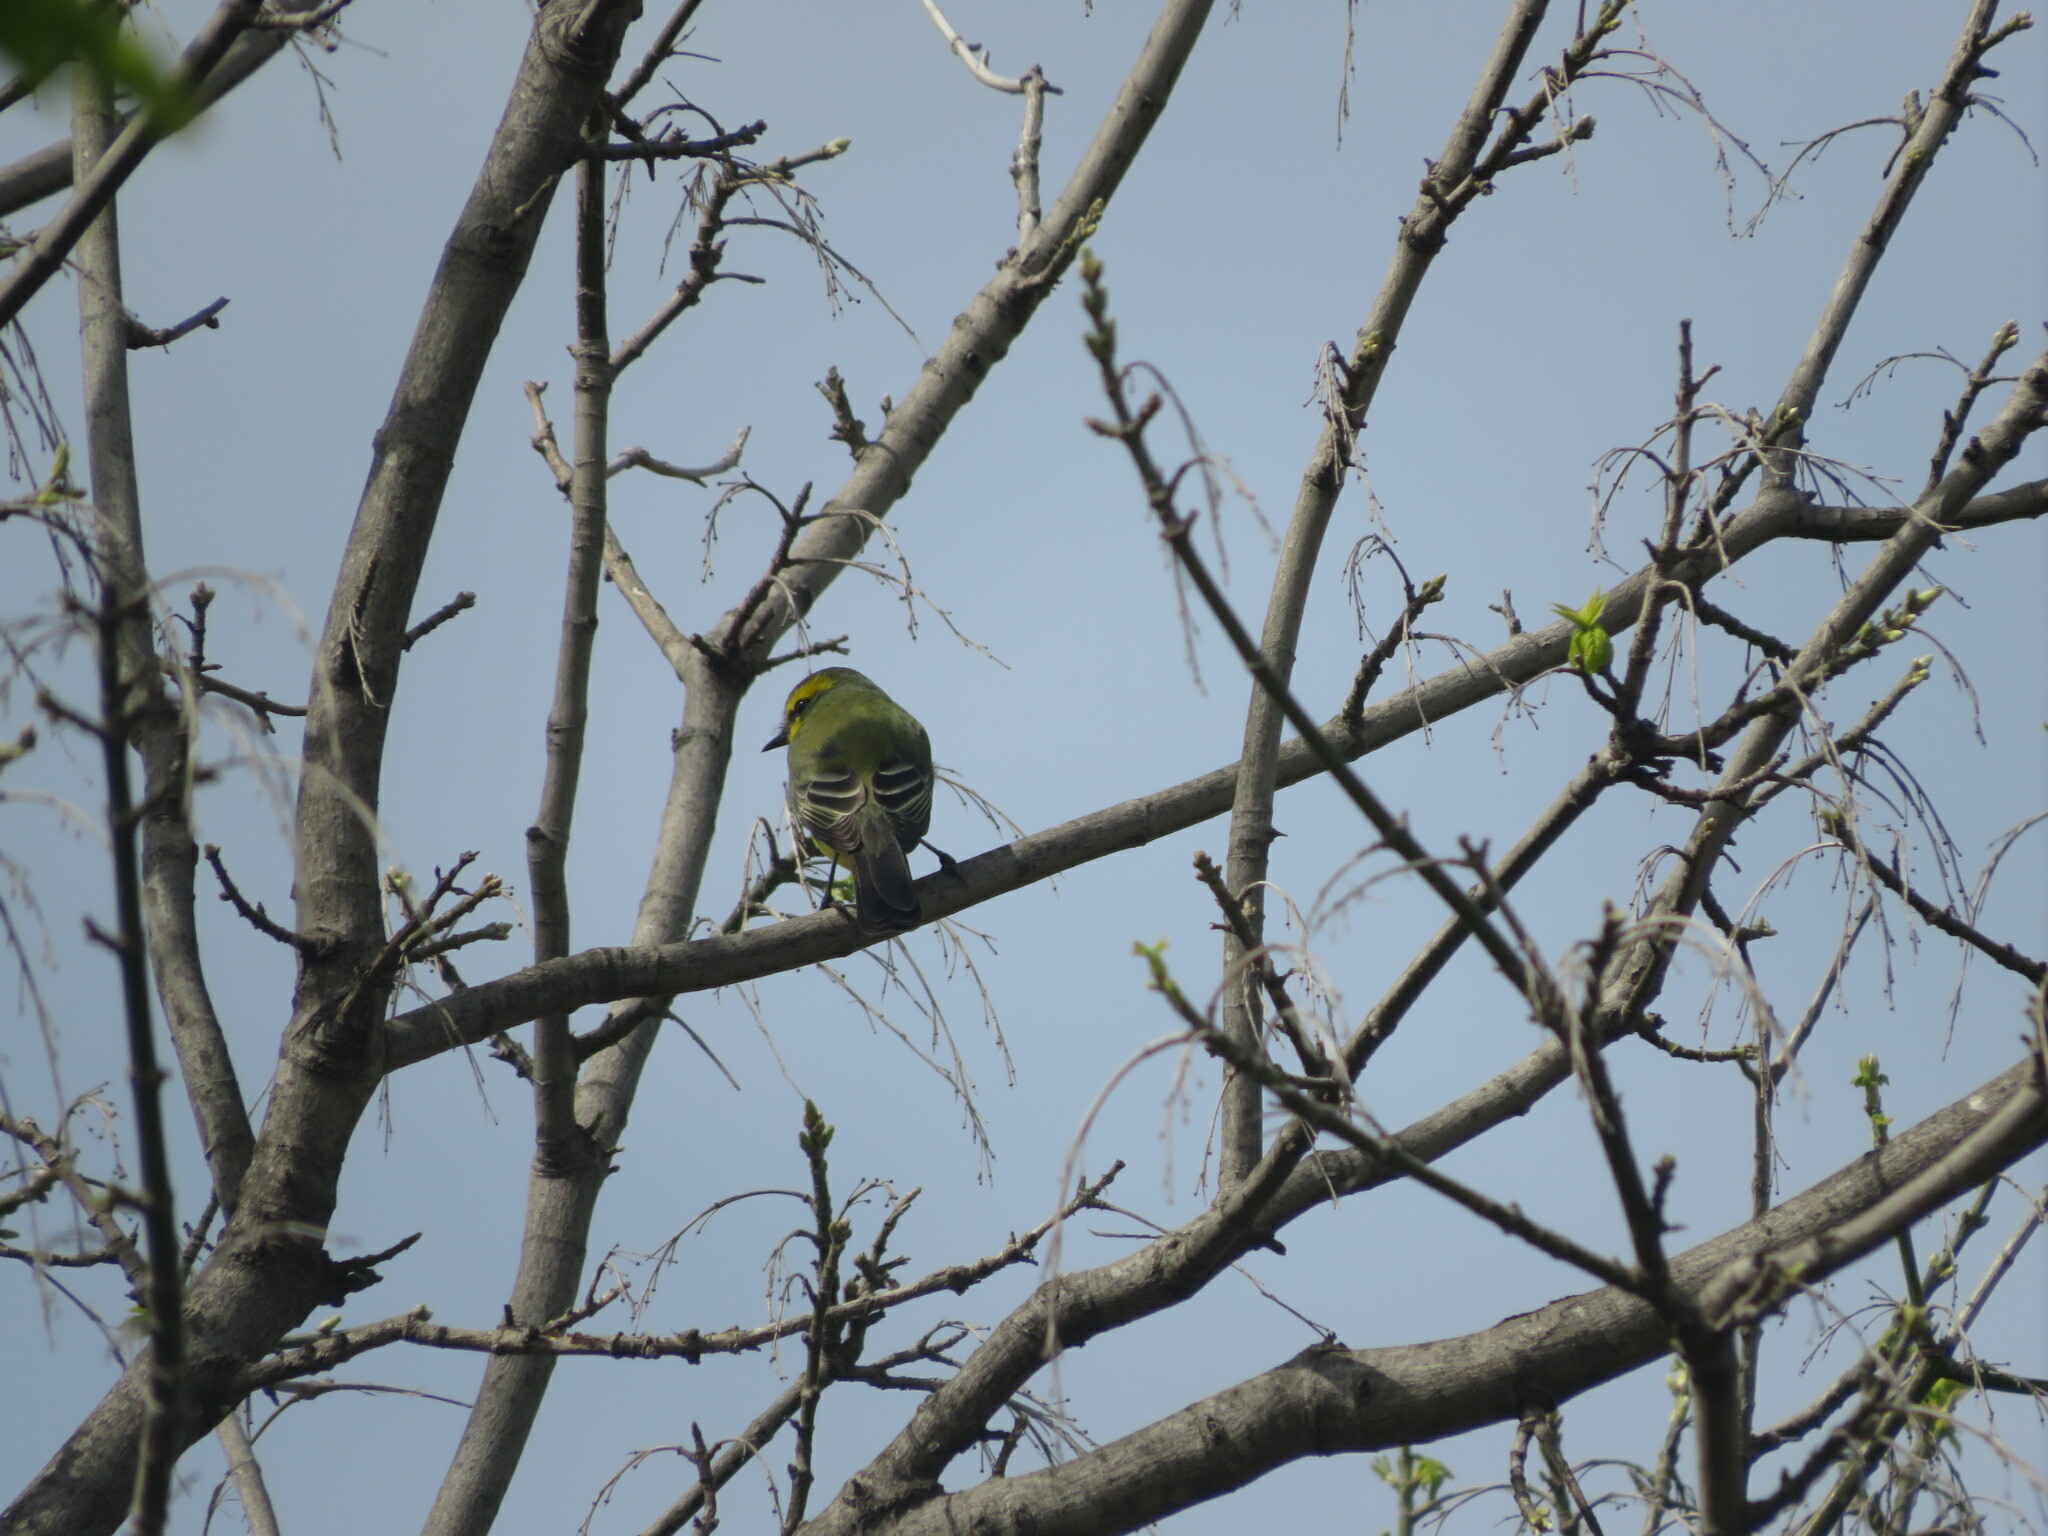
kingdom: Animalia
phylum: Chordata
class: Aves
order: Passeriformes
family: Tyrannidae
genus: Satrapa
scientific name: Satrapa icterophrys
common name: Yellow-browed tyrant
